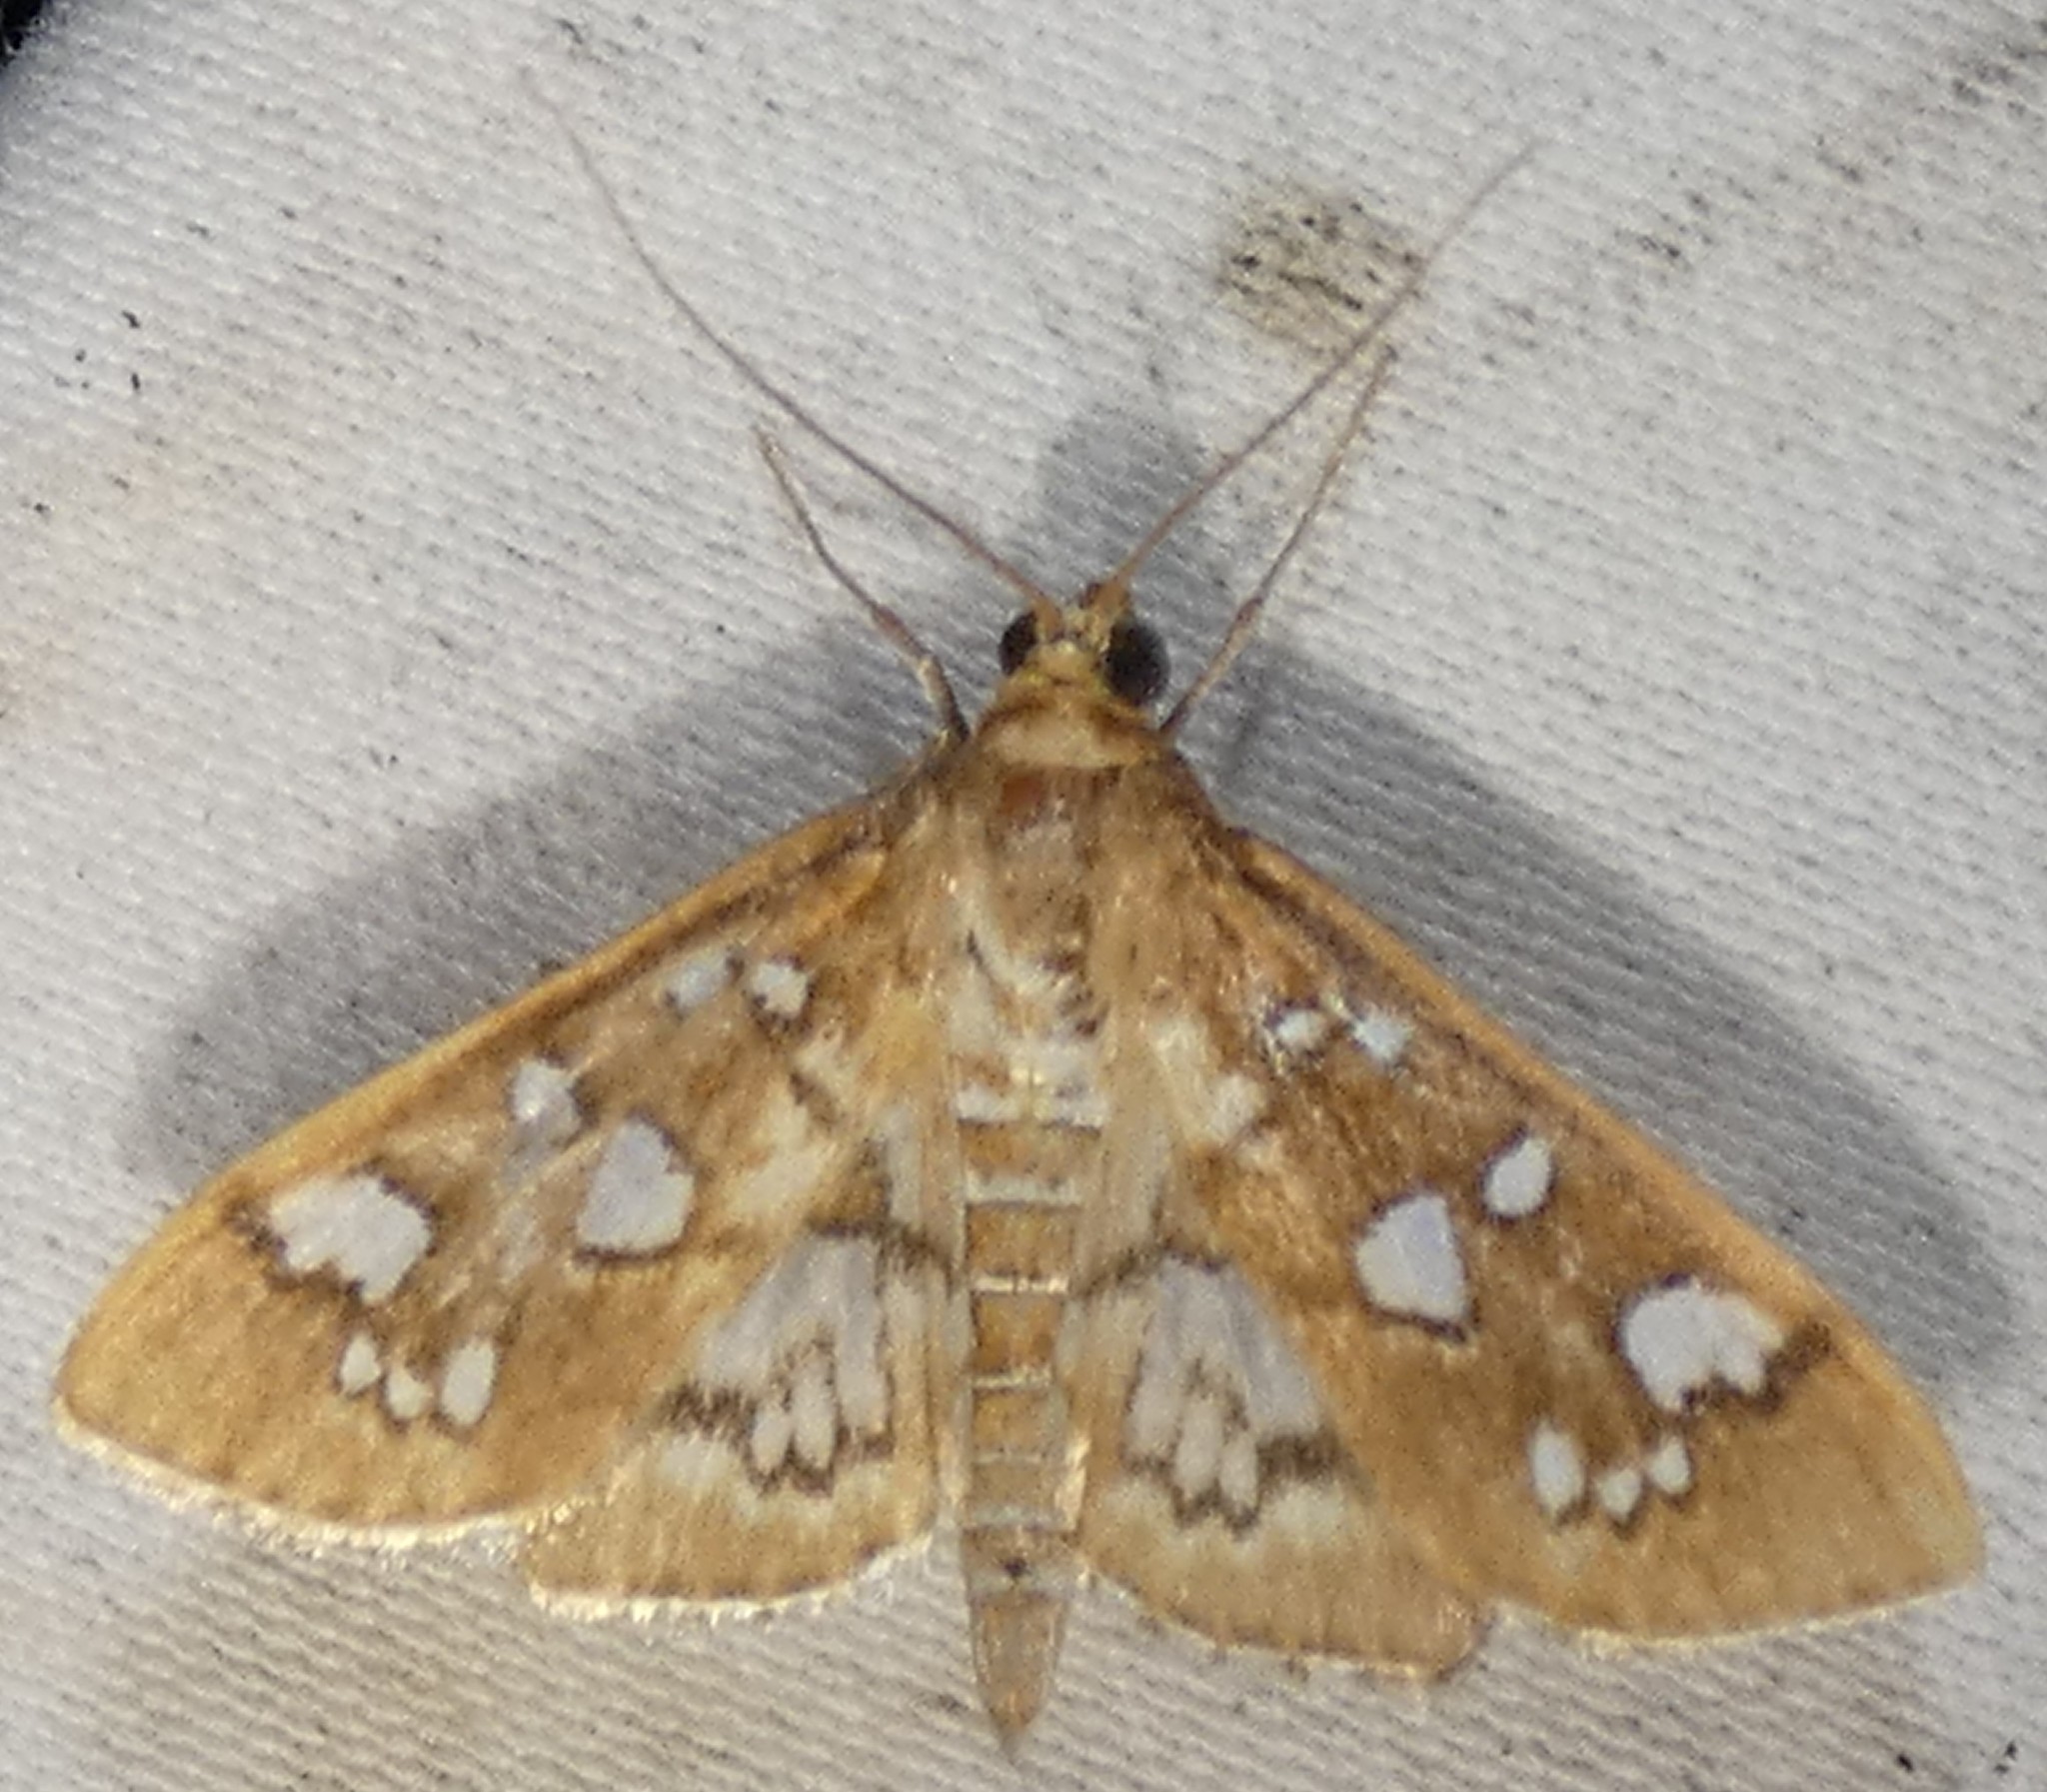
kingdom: Animalia
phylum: Arthropoda
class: Insecta
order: Lepidoptera
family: Crambidae
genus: Samea
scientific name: Samea baccatalis
